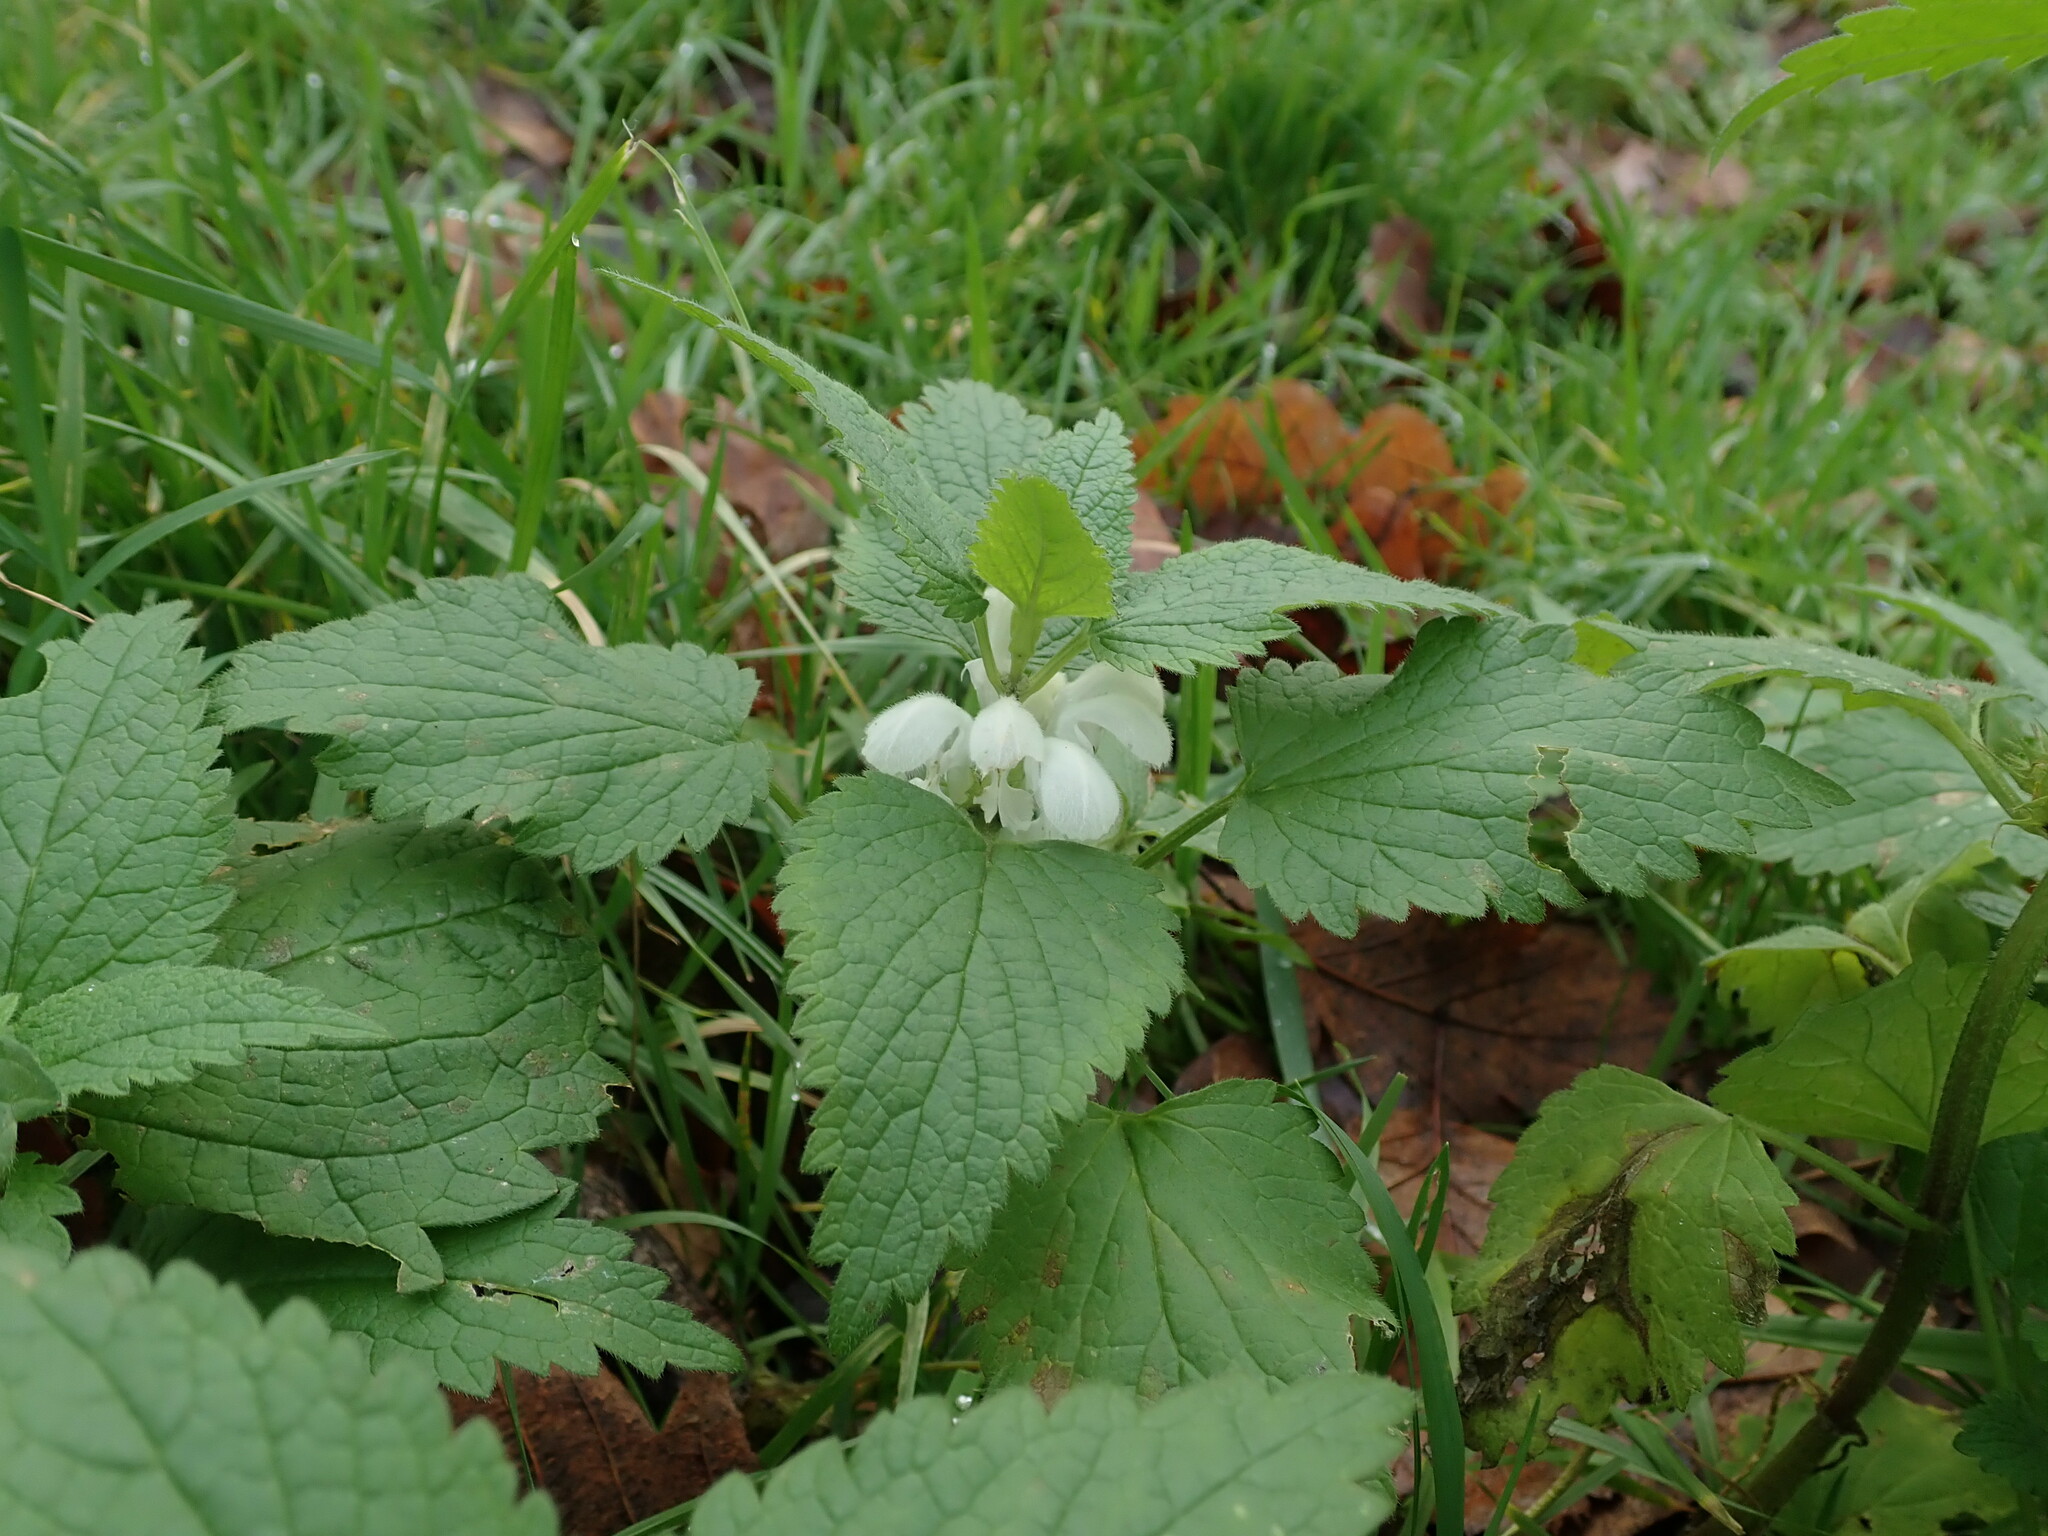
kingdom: Plantae
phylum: Tracheophyta
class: Magnoliopsida
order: Lamiales
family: Lamiaceae
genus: Lamium
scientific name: Lamium album
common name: White dead-nettle
